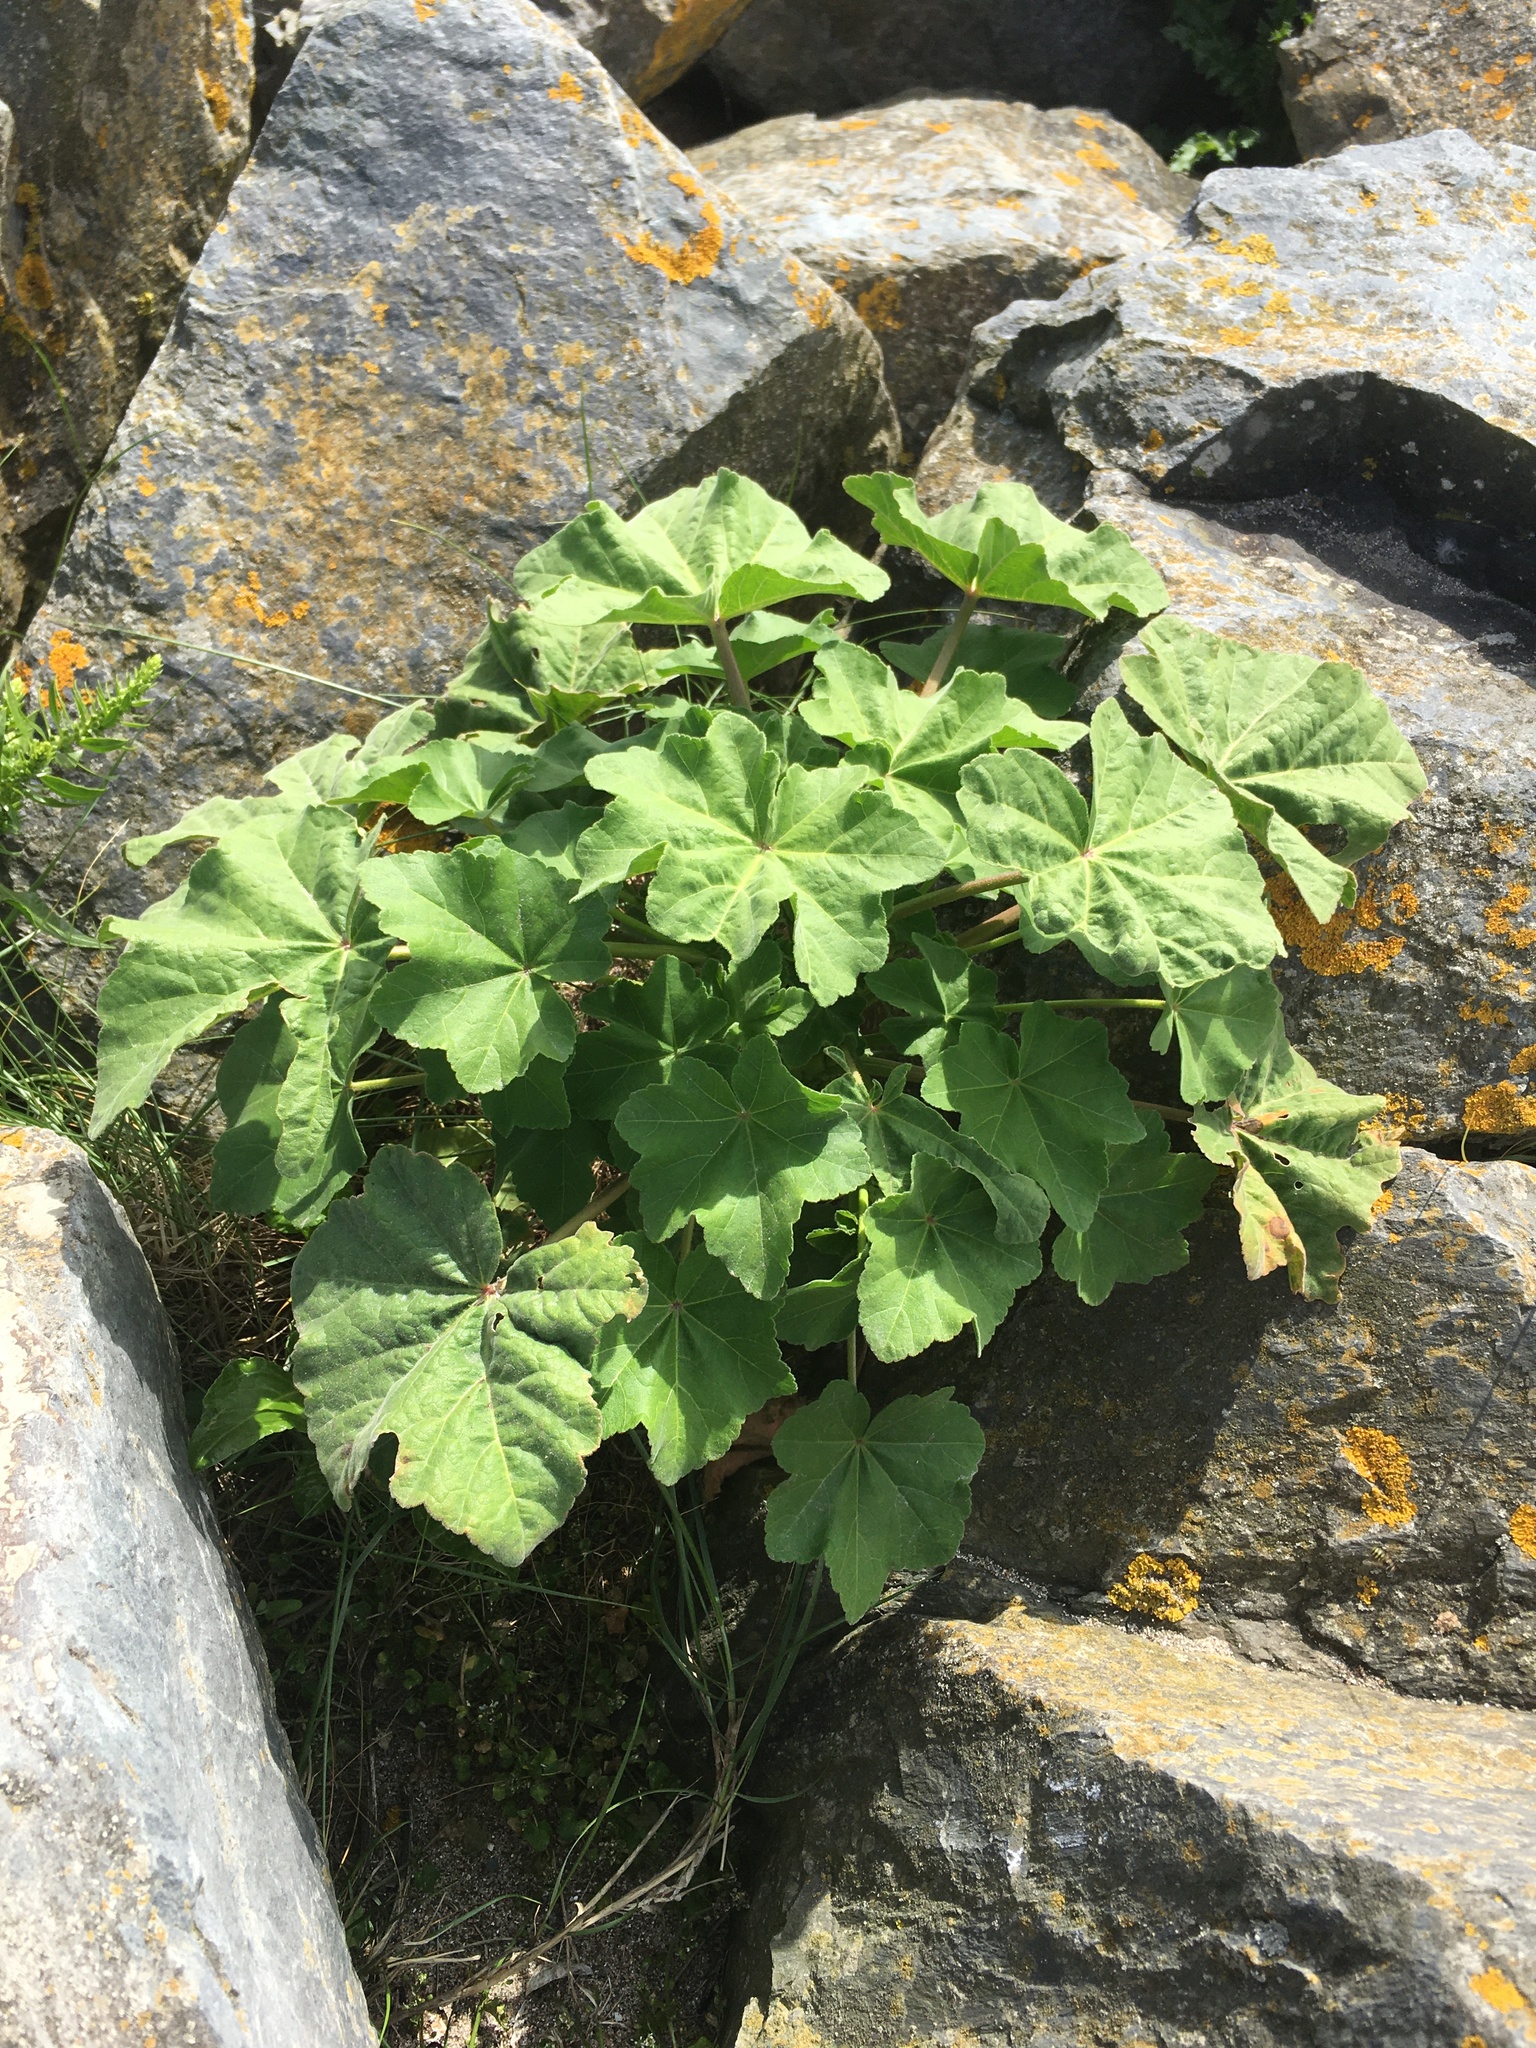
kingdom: Plantae
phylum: Tracheophyta
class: Magnoliopsida
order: Malvales
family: Malvaceae
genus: Malva
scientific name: Malva arborea
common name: Tree mallow
